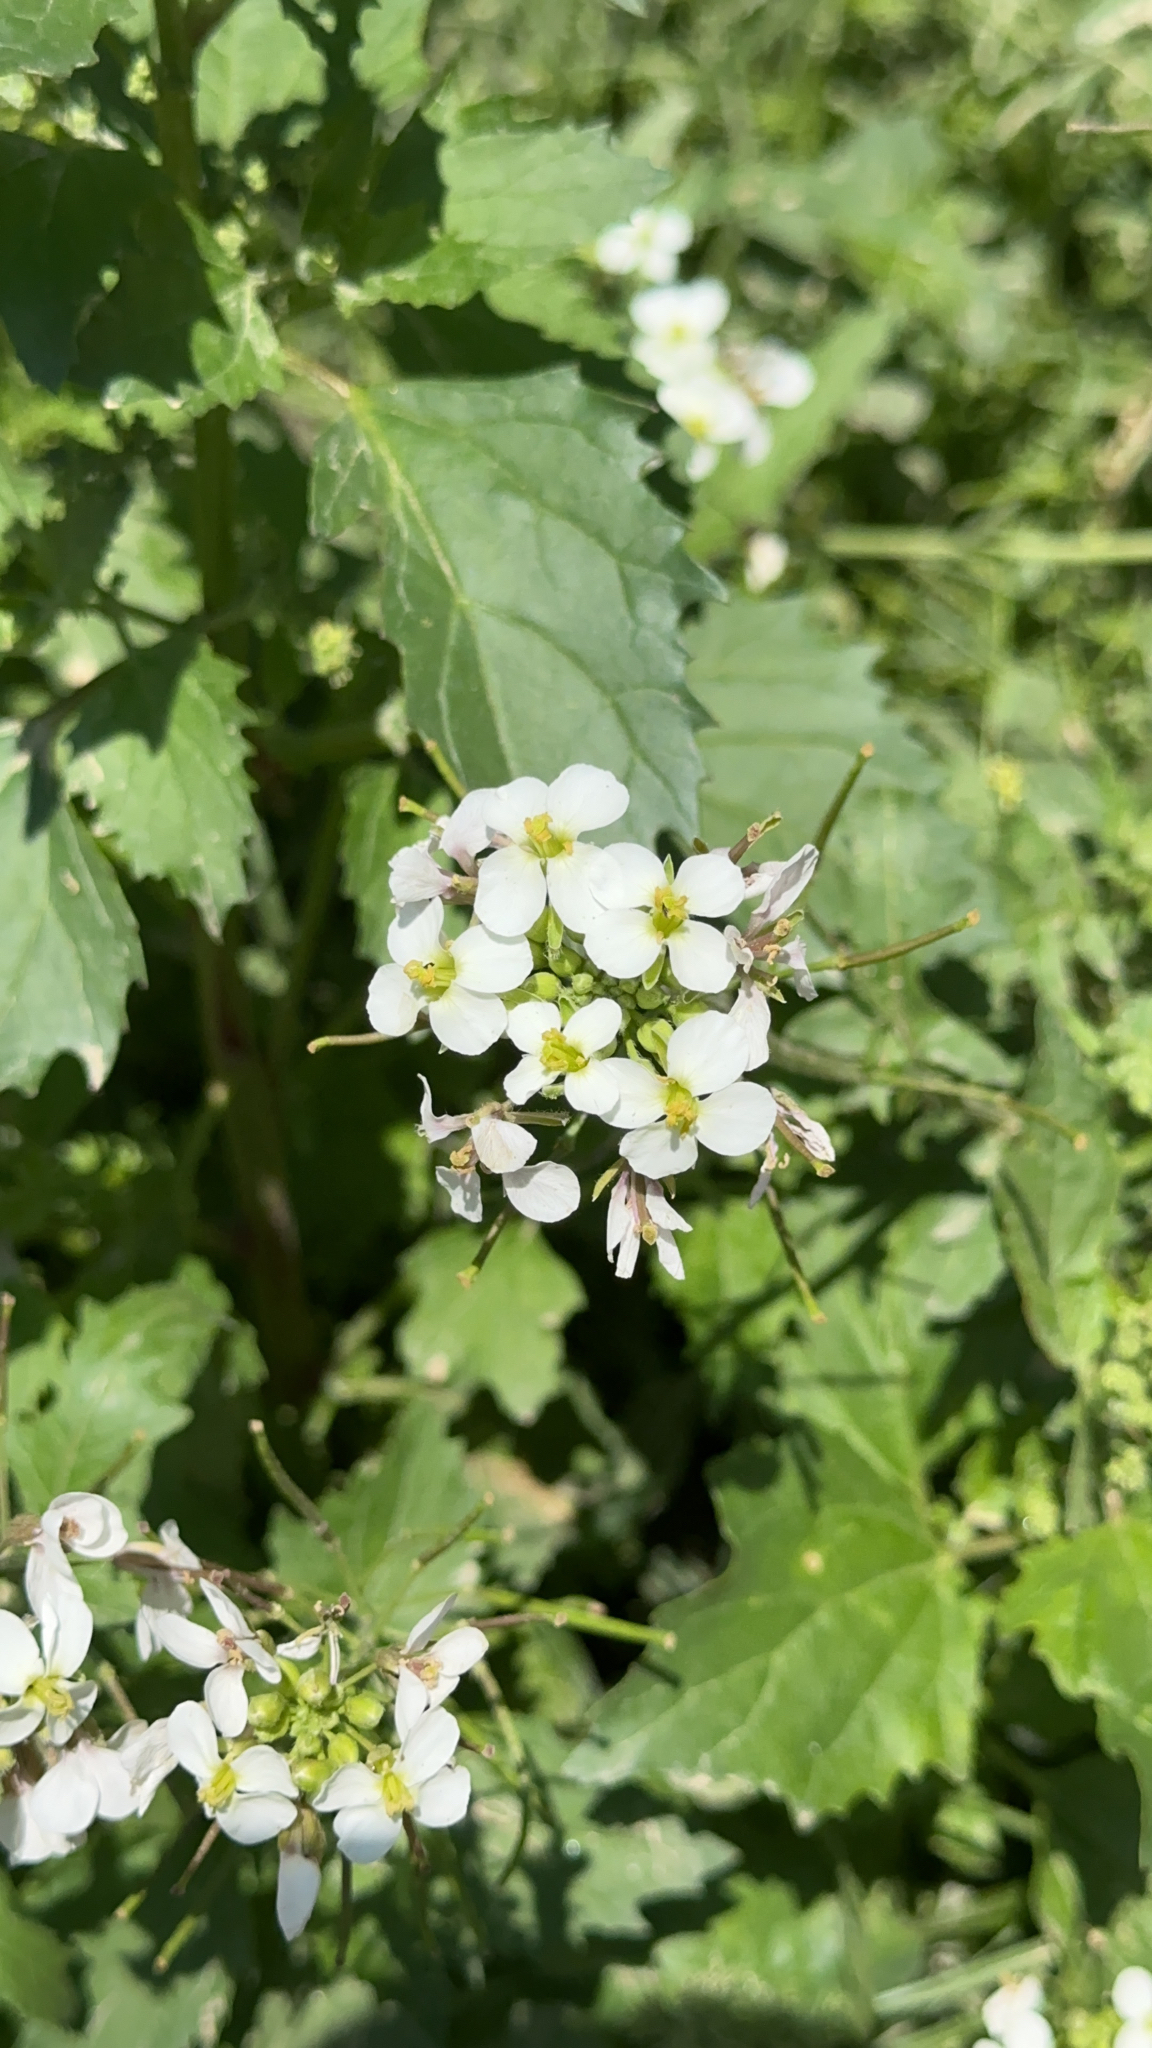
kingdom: Plantae
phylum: Tracheophyta
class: Magnoliopsida
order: Brassicales
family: Brassicaceae
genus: Diplotaxis
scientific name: Diplotaxis erucoides
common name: White rocket
